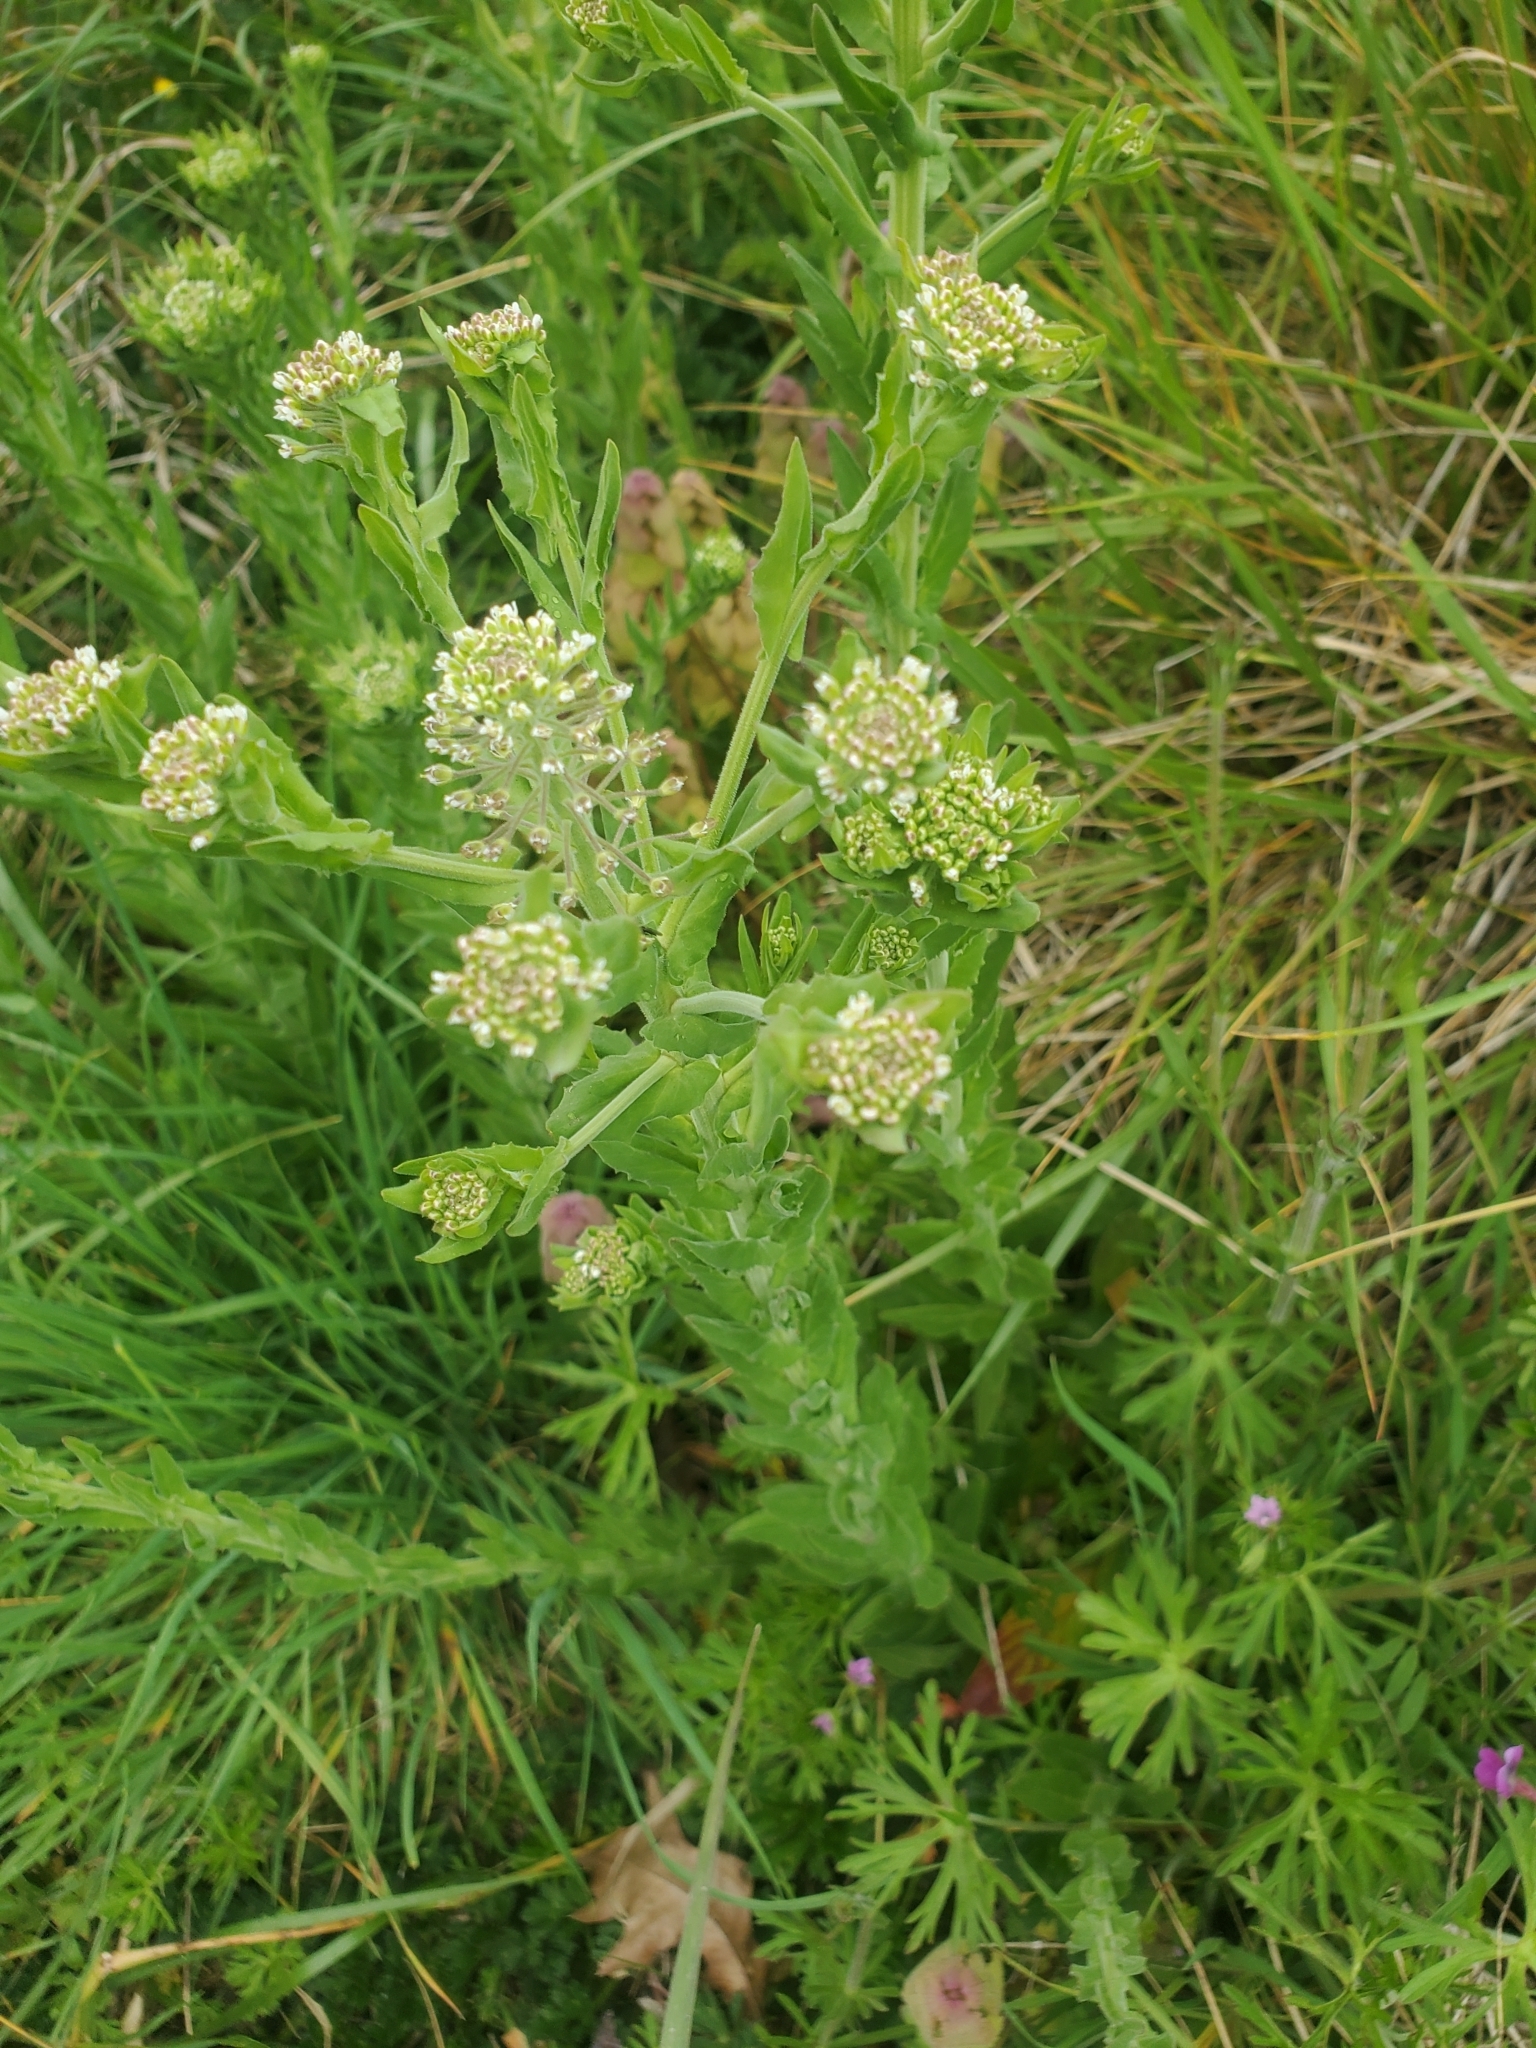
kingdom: Plantae
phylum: Tracheophyta
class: Magnoliopsida
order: Brassicales
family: Brassicaceae
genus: Lepidium
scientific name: Lepidium campestre
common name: Field pepperwort
